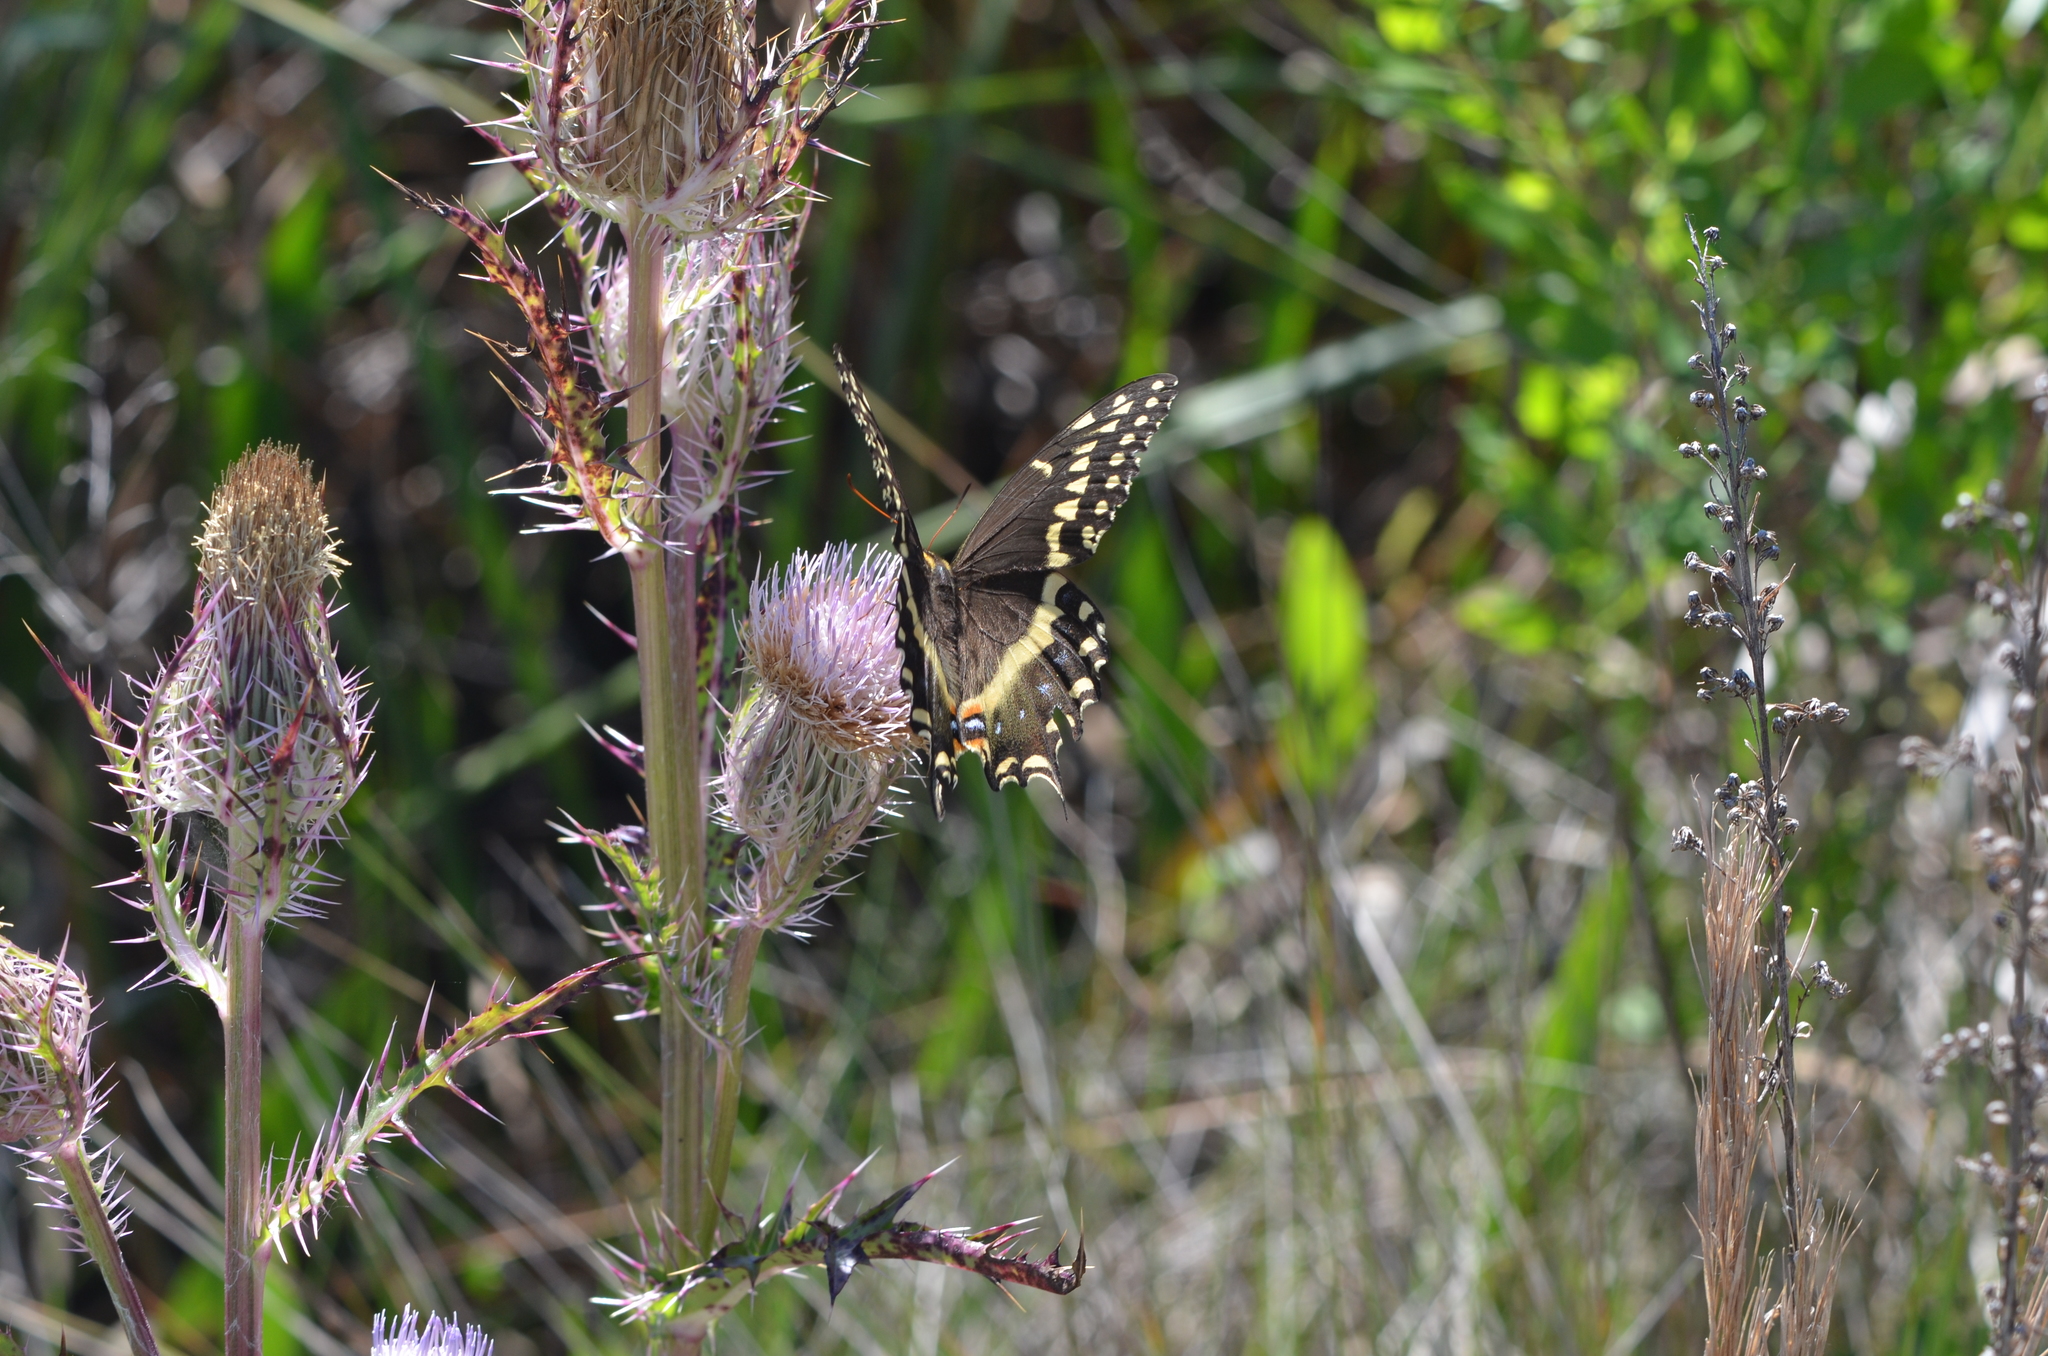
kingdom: Animalia
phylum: Arthropoda
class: Insecta
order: Lepidoptera
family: Papilionidae
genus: Papilio
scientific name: Papilio palamedes
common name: Palamedes swallowtail
